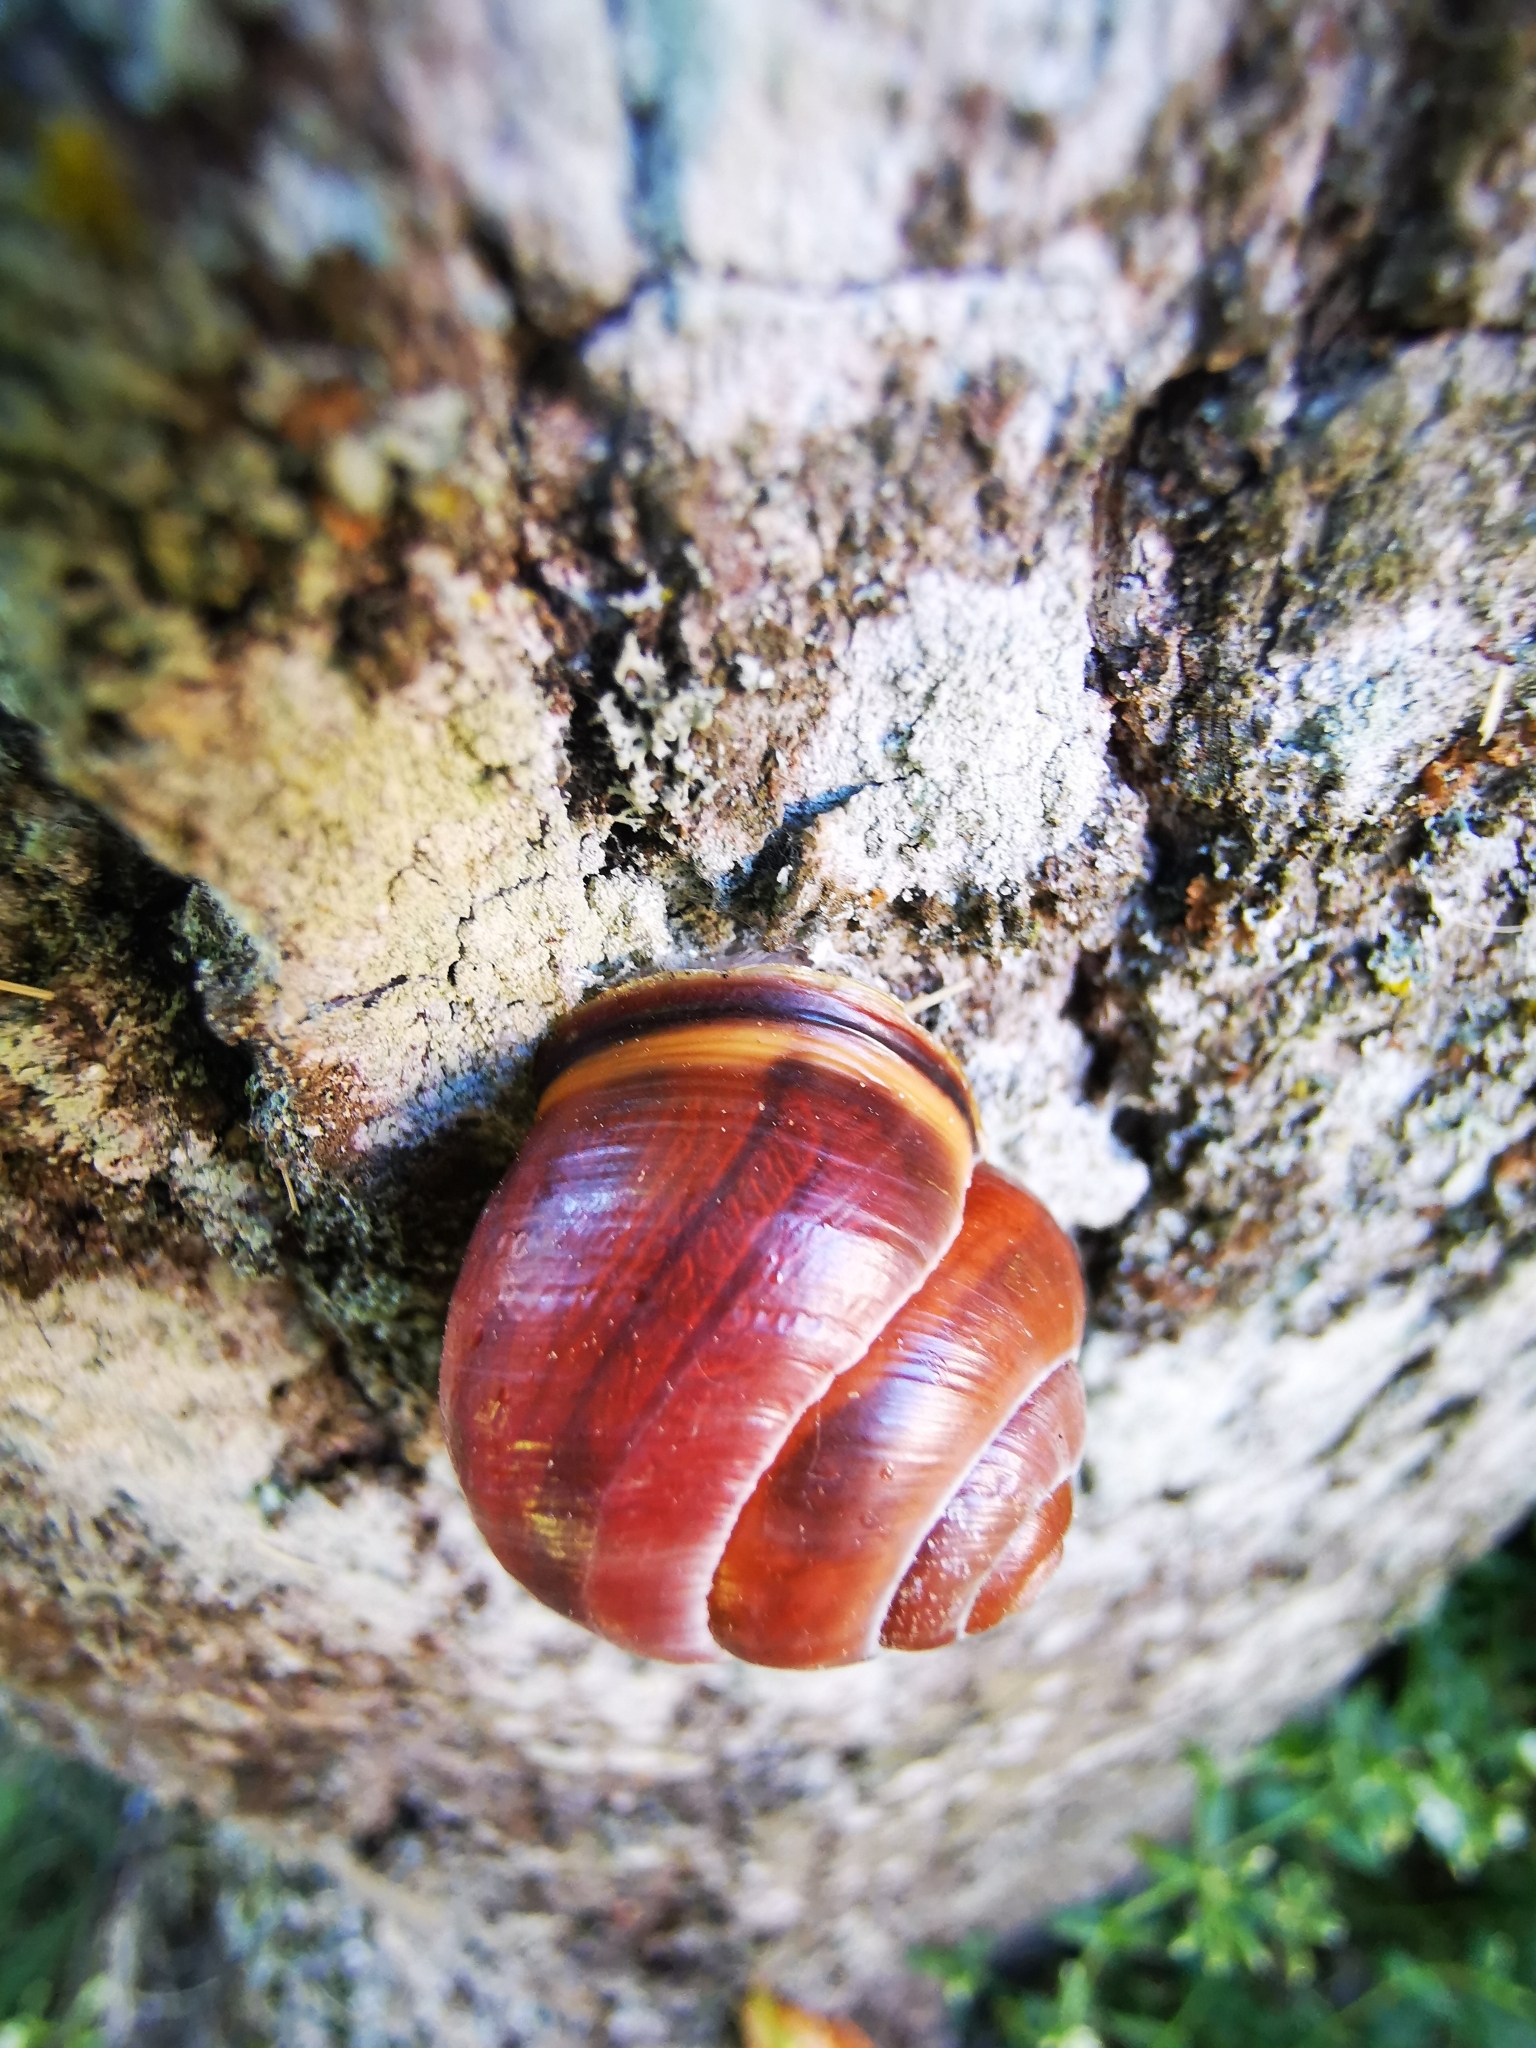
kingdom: Animalia
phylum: Mollusca
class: Gastropoda
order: Stylommatophora
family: Helicidae
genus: Cepaea
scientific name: Cepaea nemoralis
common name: Grovesnail
